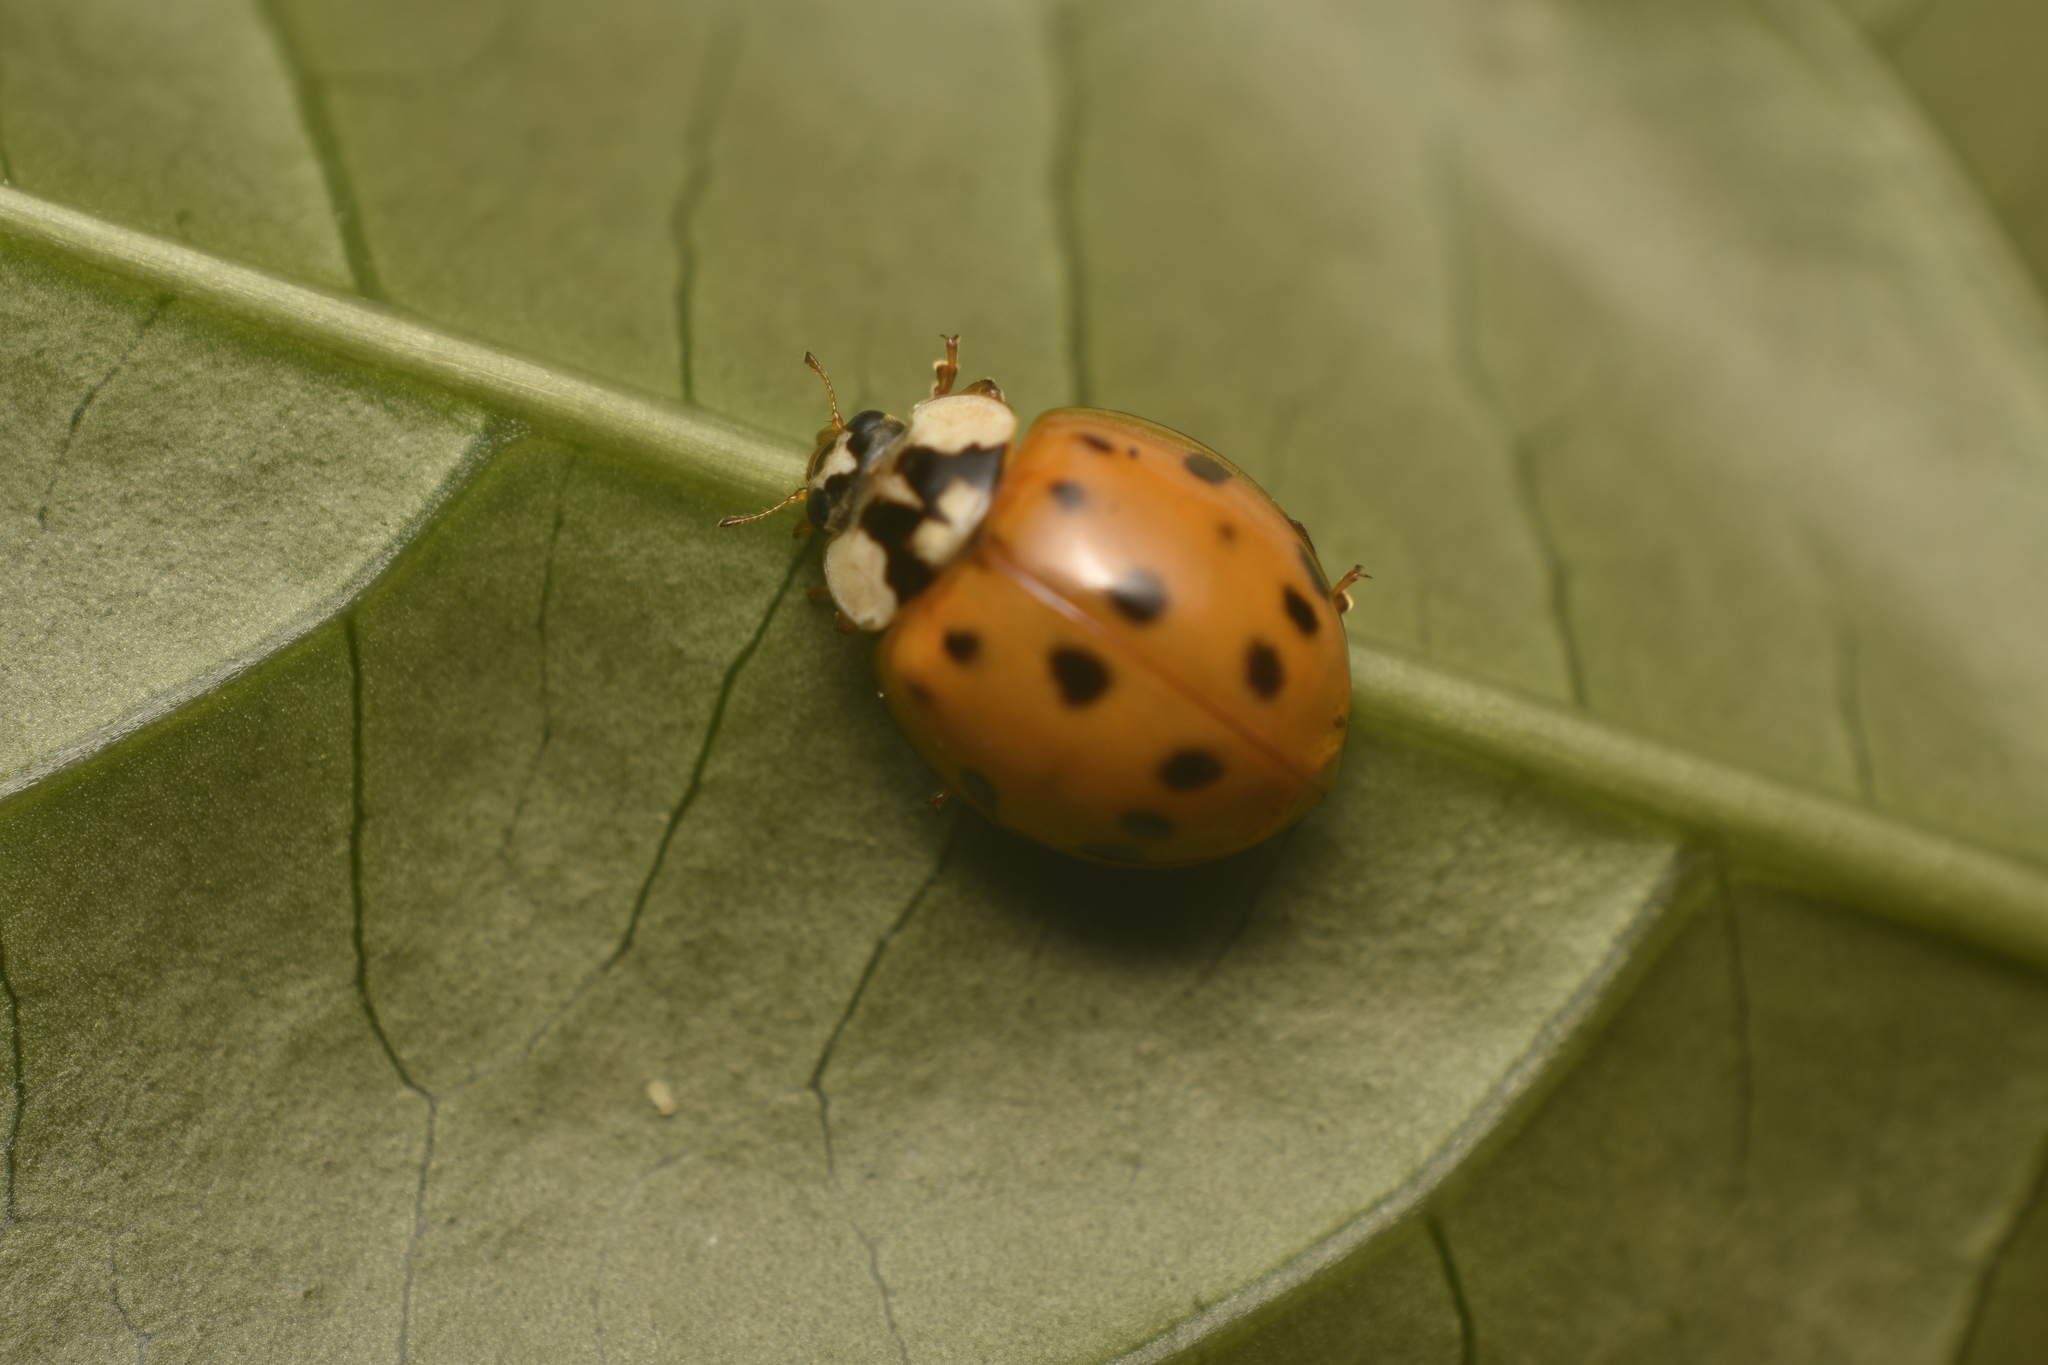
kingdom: Animalia
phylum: Arthropoda
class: Insecta
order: Coleoptera
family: Coccinellidae
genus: Harmonia
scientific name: Harmonia axyridis
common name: Harlequin ladybird
